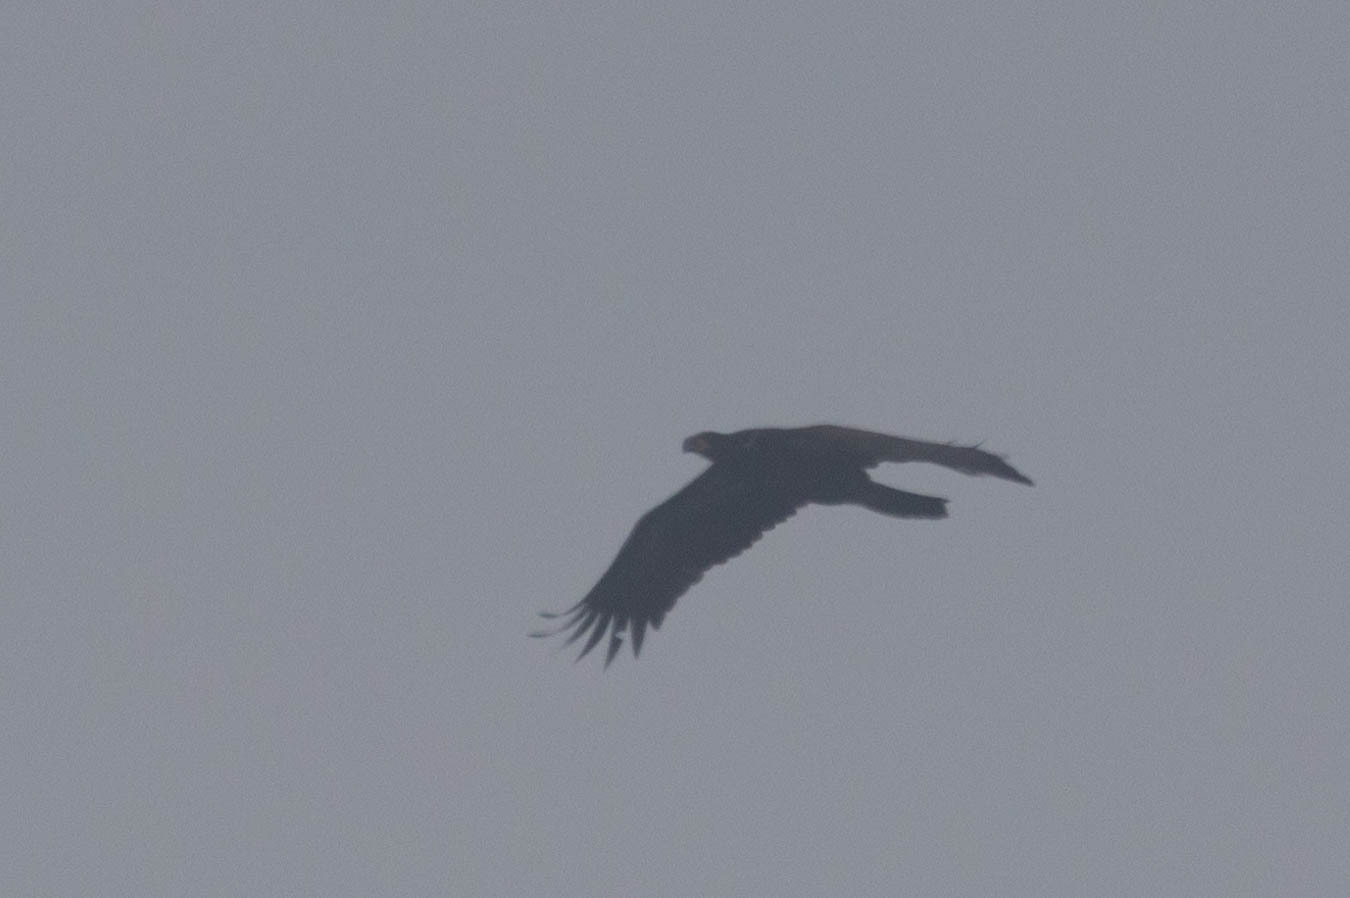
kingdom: Animalia
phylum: Chordata
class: Aves
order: Accipitriformes
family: Accipitridae
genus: Haliaeetus
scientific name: Haliaeetus leucocephalus
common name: Bald eagle
